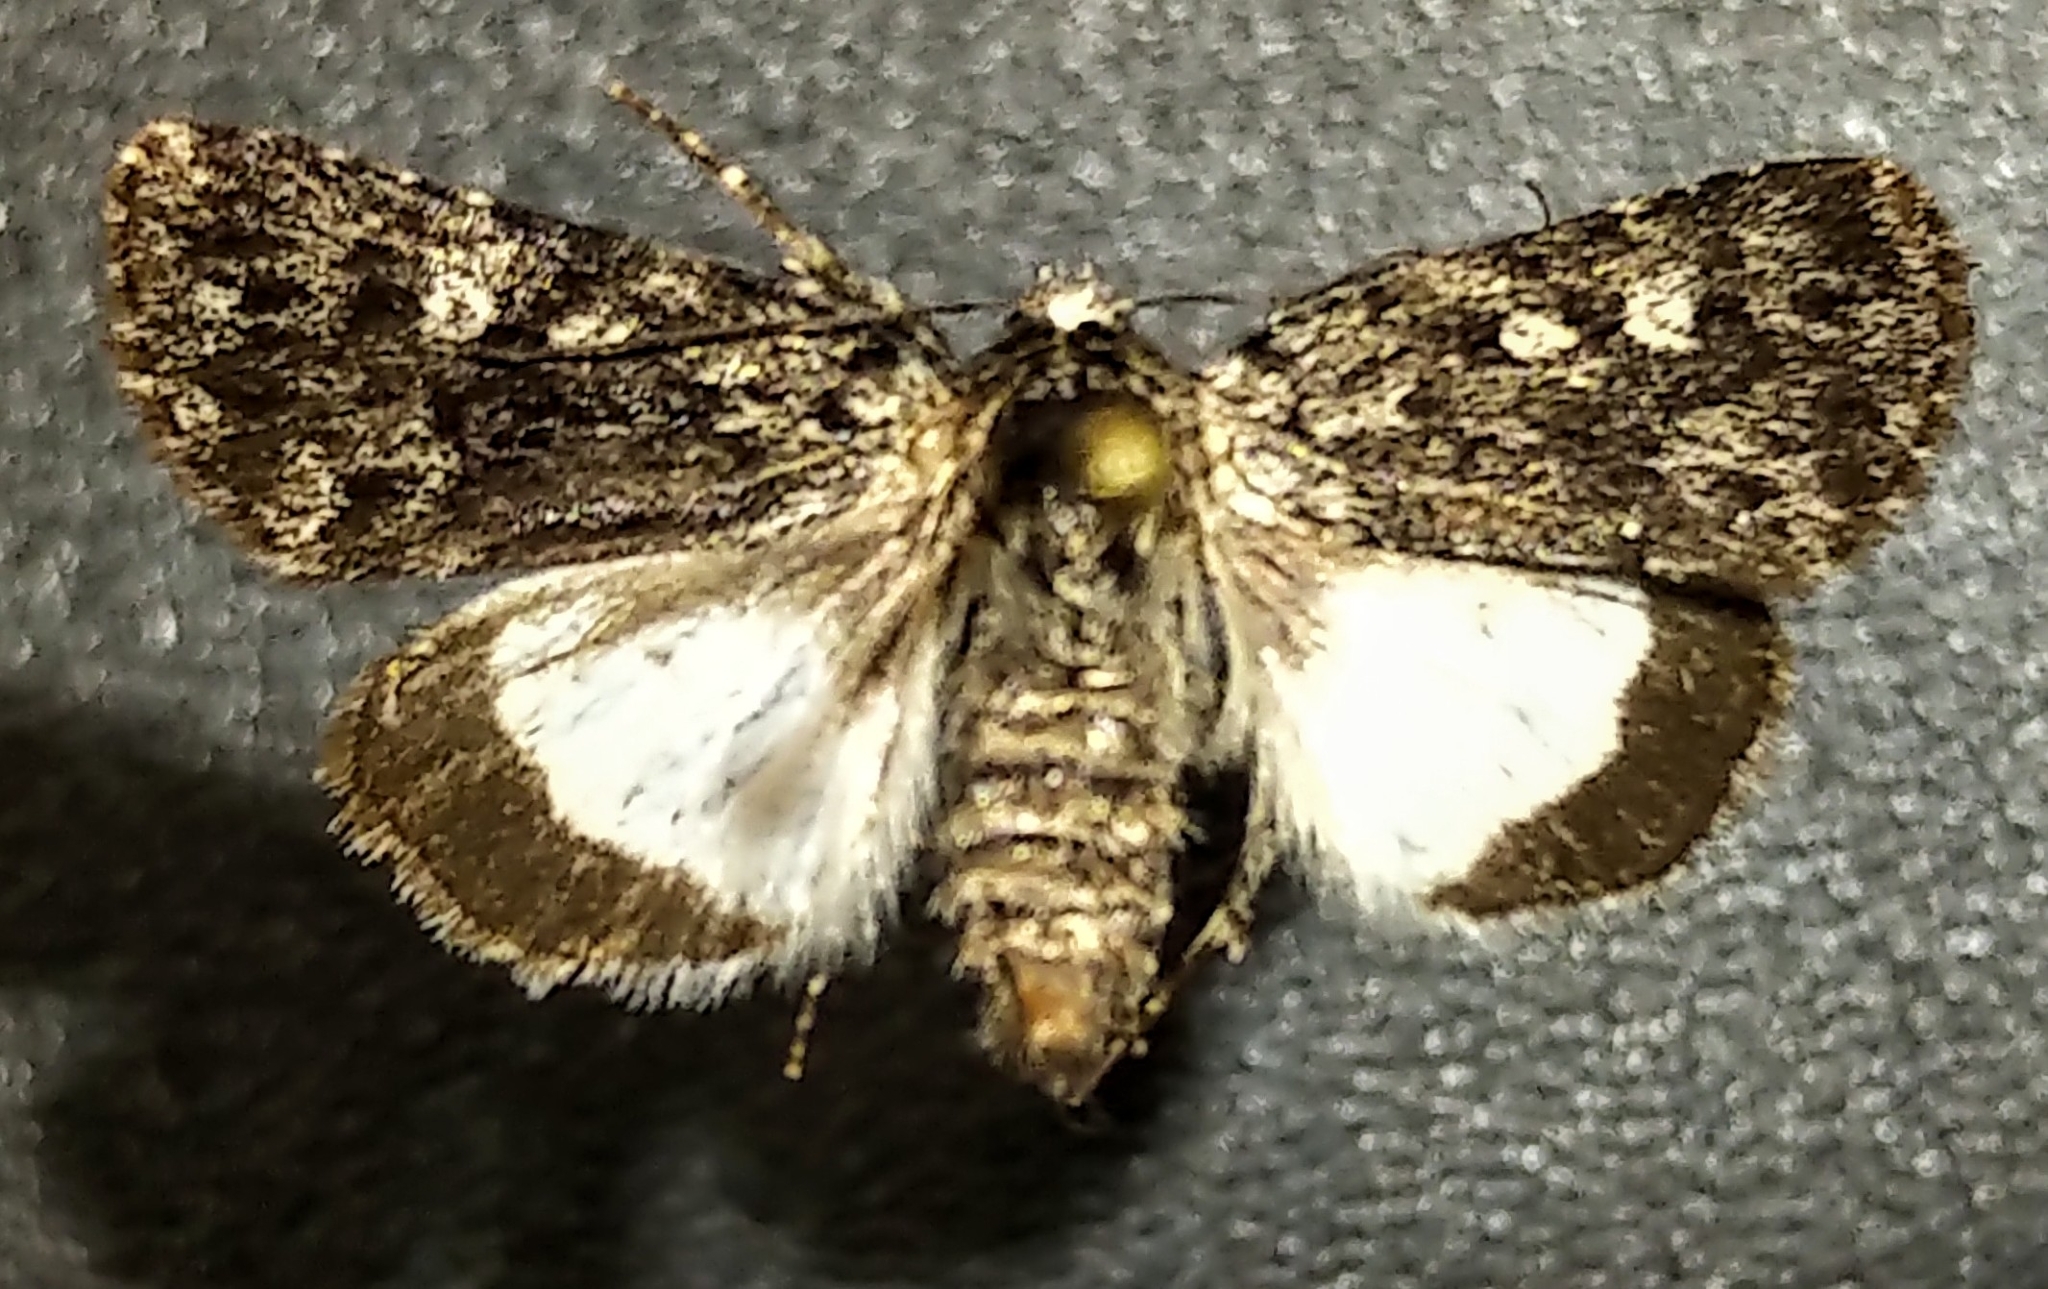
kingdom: Animalia
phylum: Arthropoda
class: Insecta
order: Lepidoptera
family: Noctuidae
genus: Sympistis
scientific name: Sympistis heliophila
